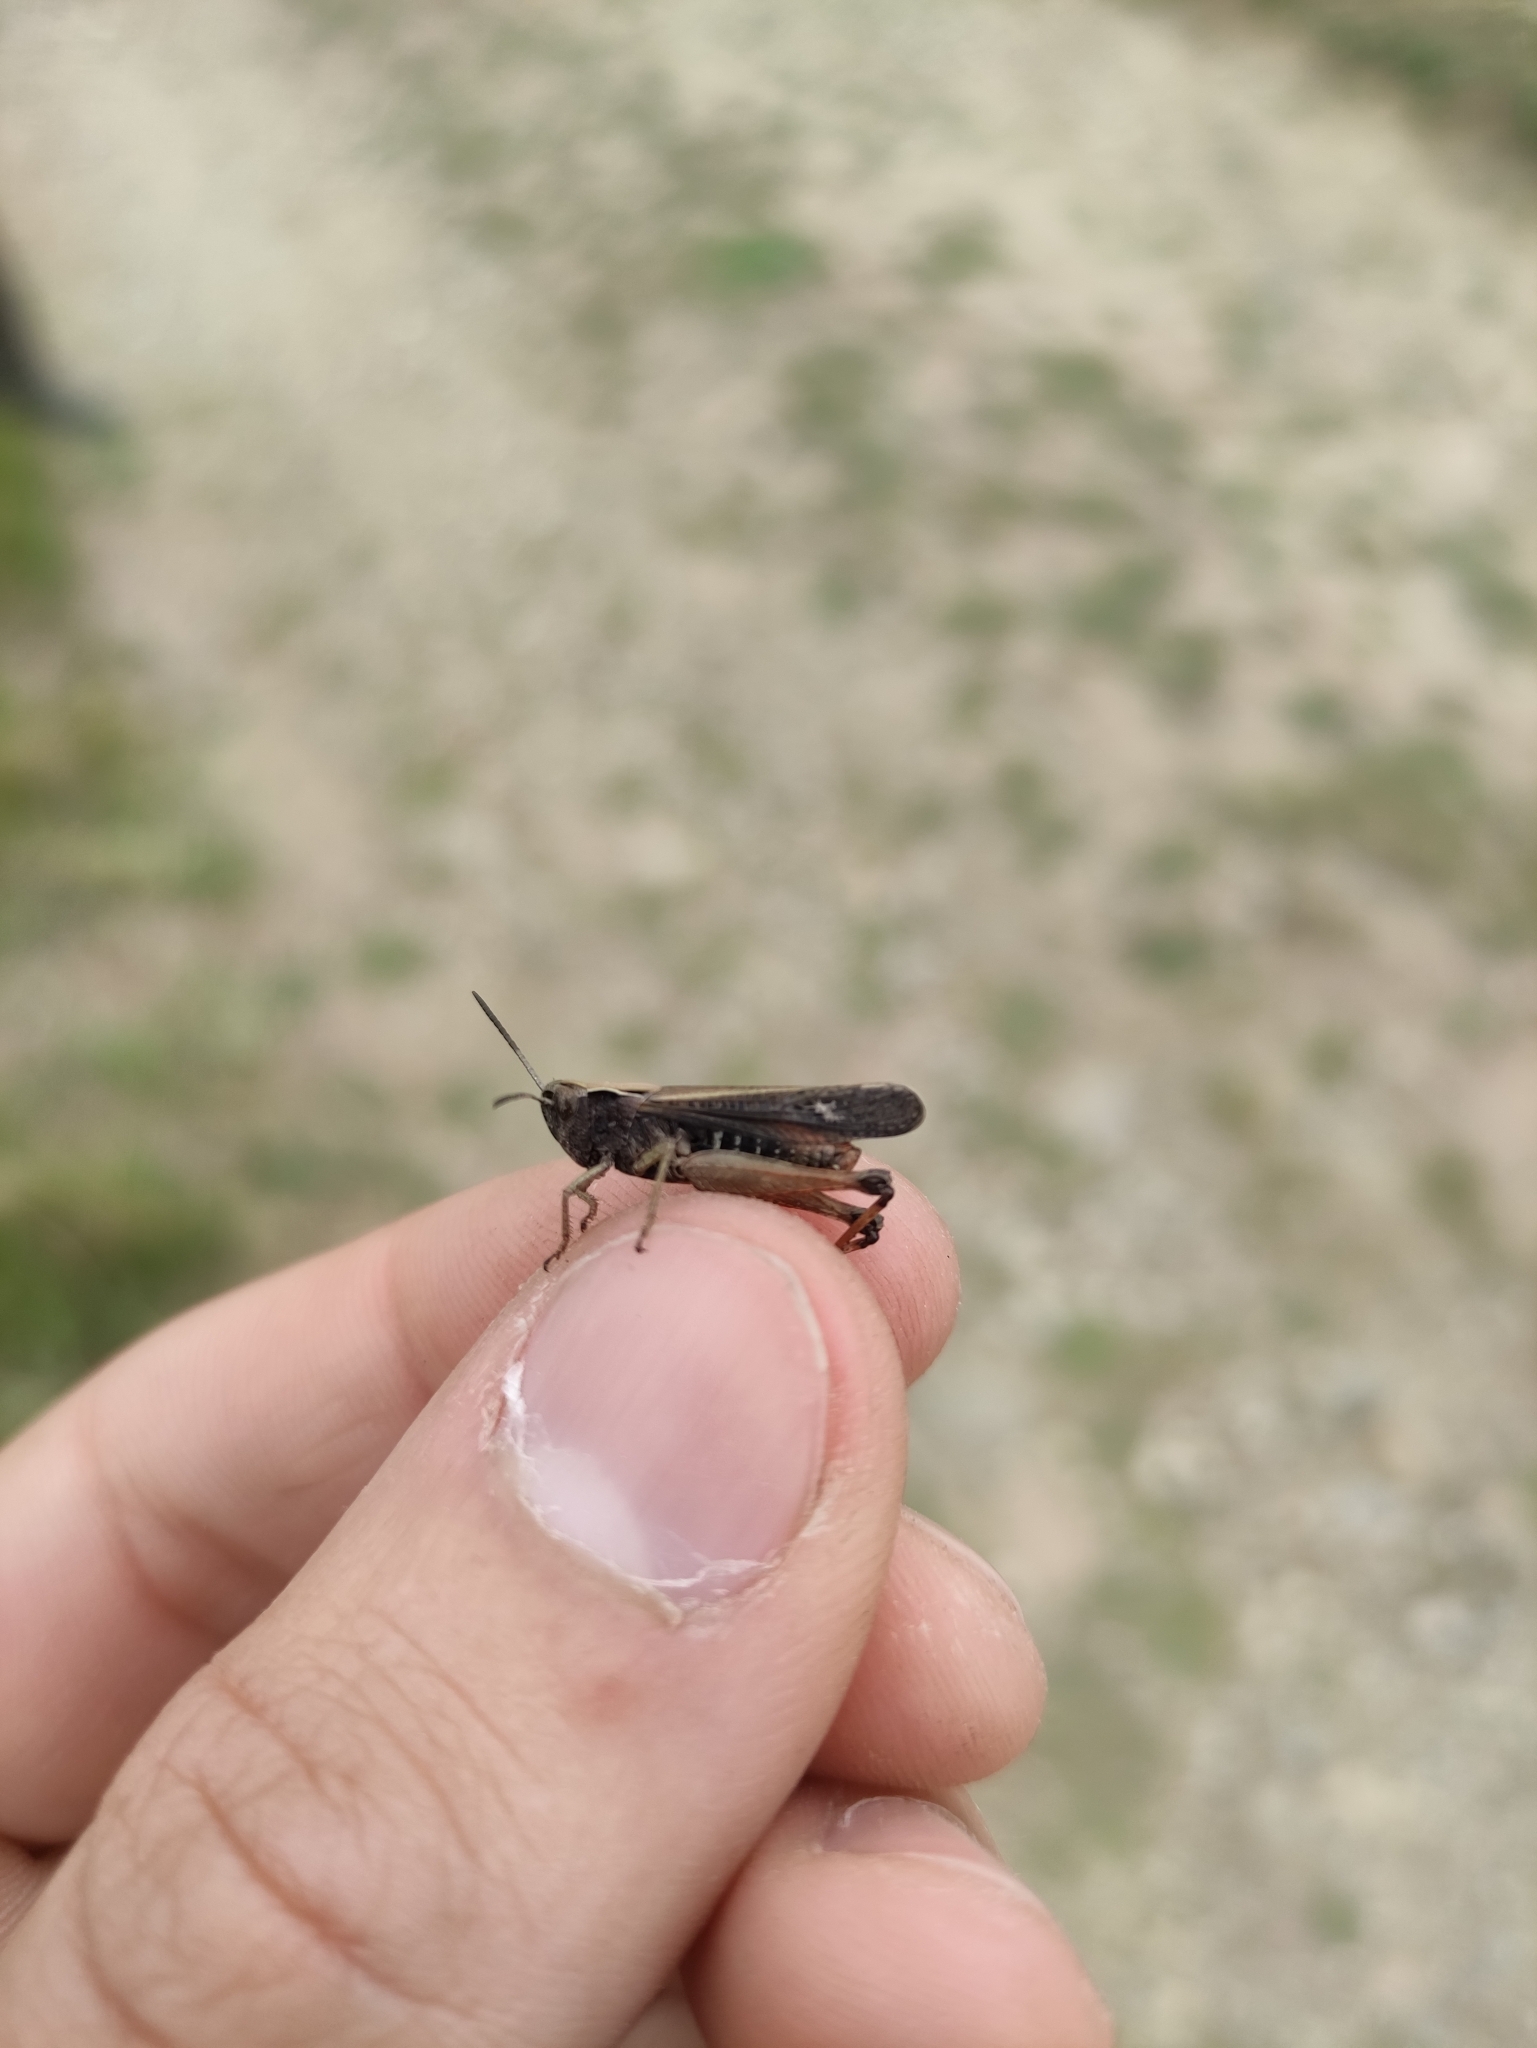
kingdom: Animalia
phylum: Arthropoda
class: Insecta
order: Orthoptera
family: Acrididae
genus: Omocestus
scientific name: Omocestus rufipes
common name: Woodland grasshopper
